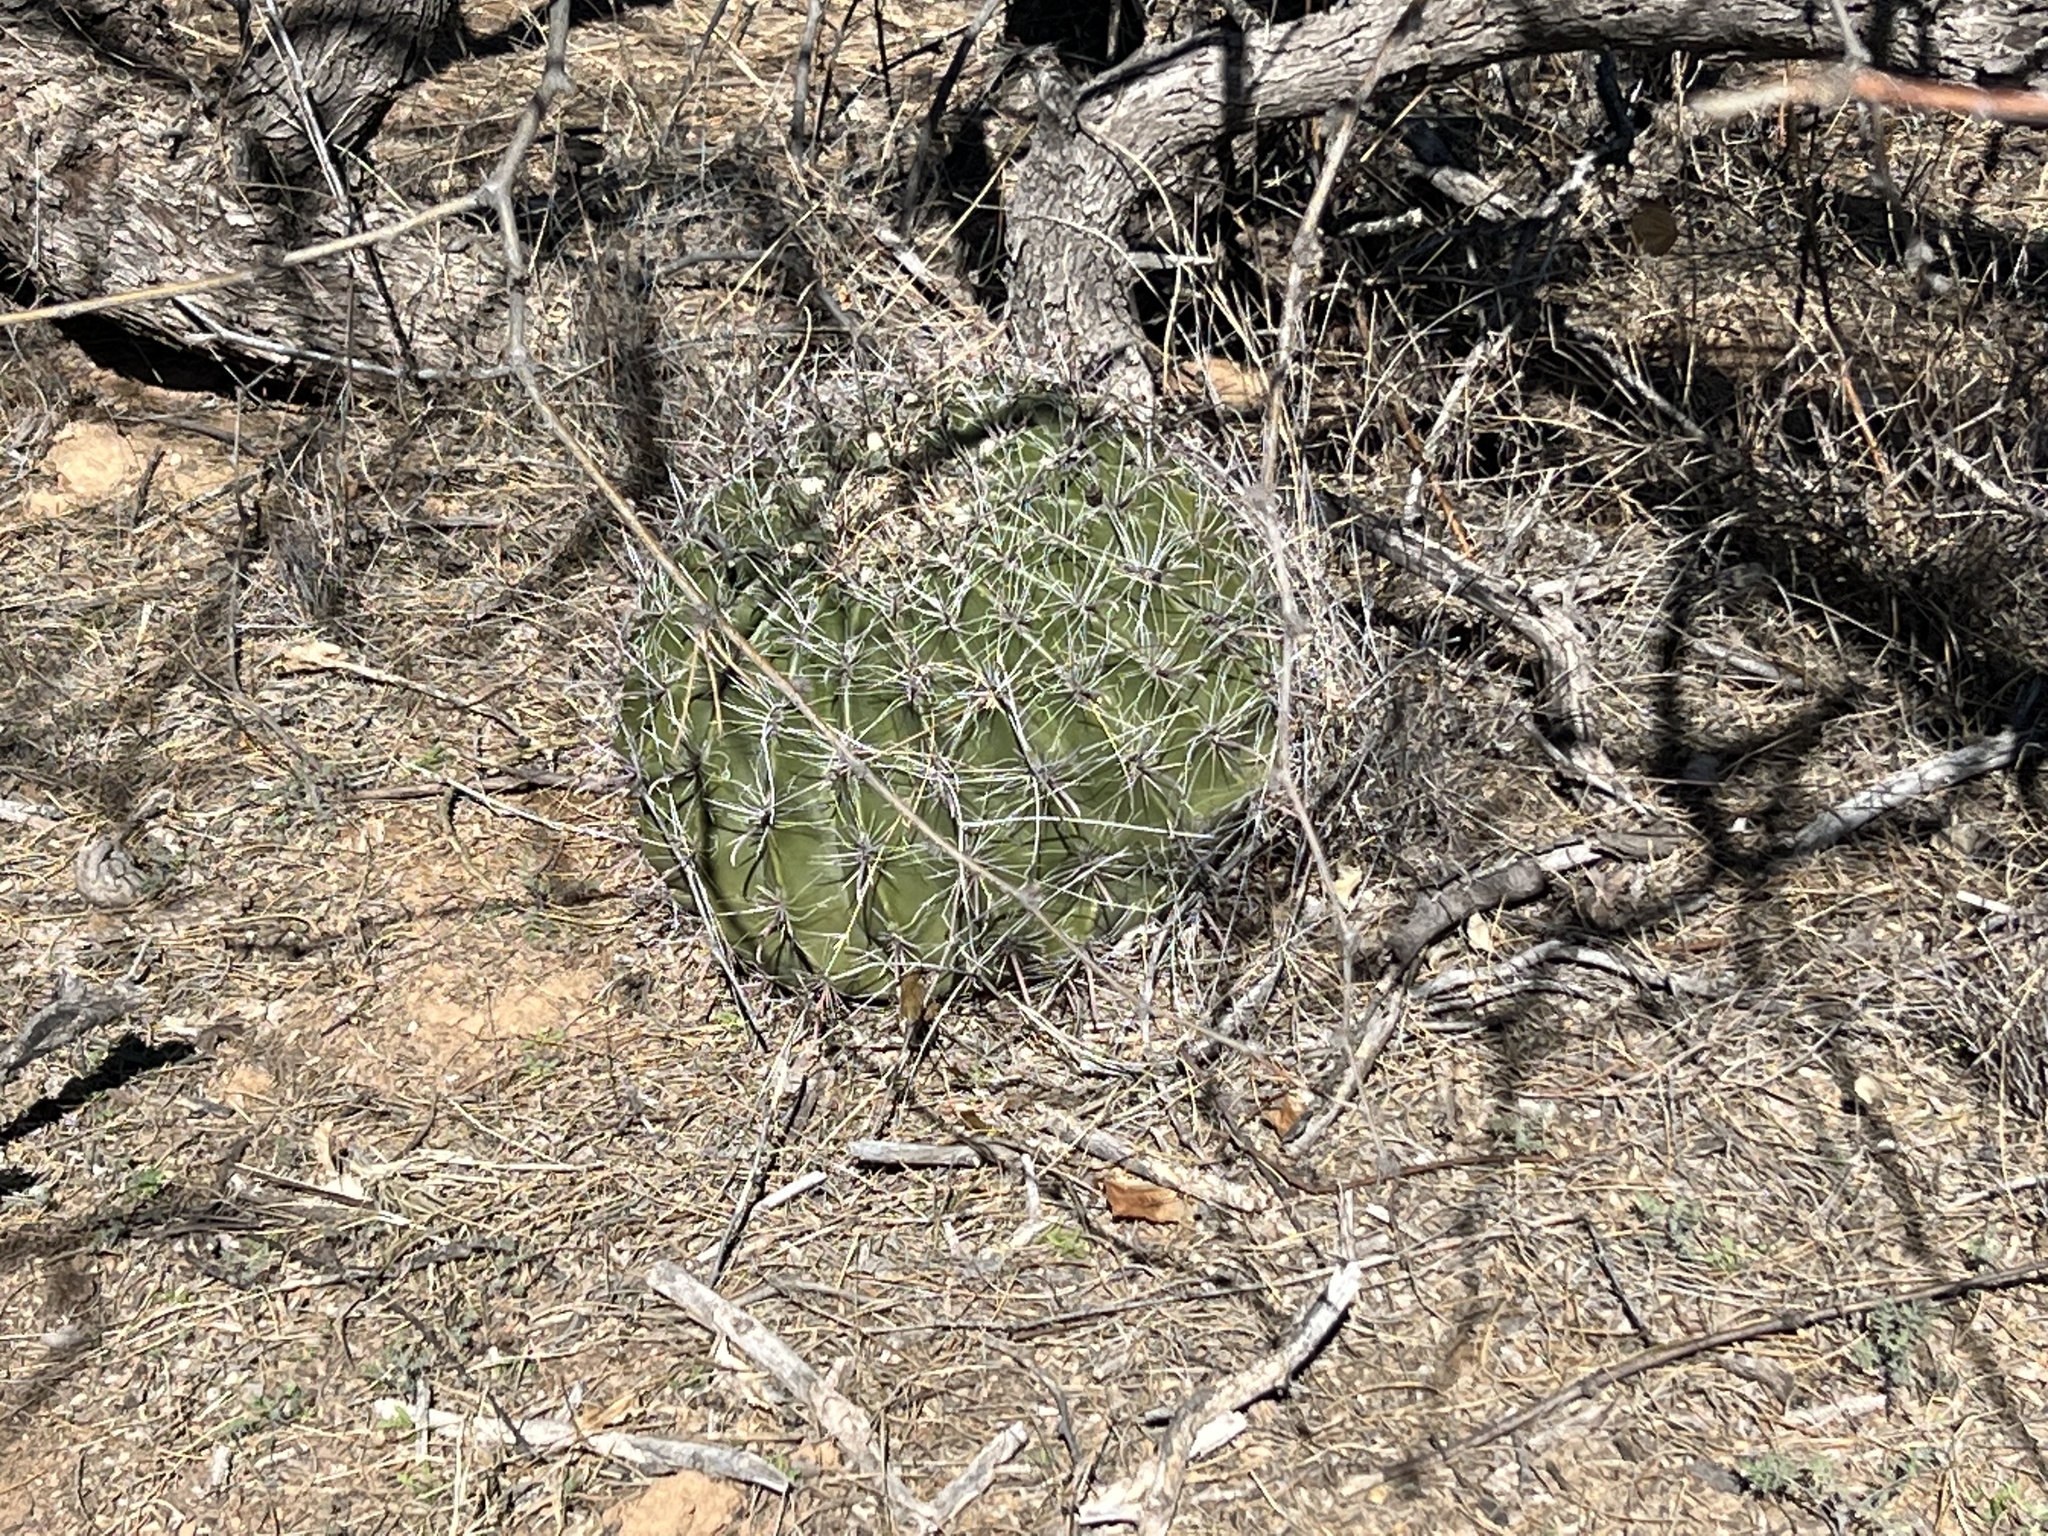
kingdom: Plantae
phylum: Tracheophyta
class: Magnoliopsida
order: Caryophyllales
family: Cactaceae
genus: Ferocactus
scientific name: Ferocactus wislizeni
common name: Candy barrel cactus
